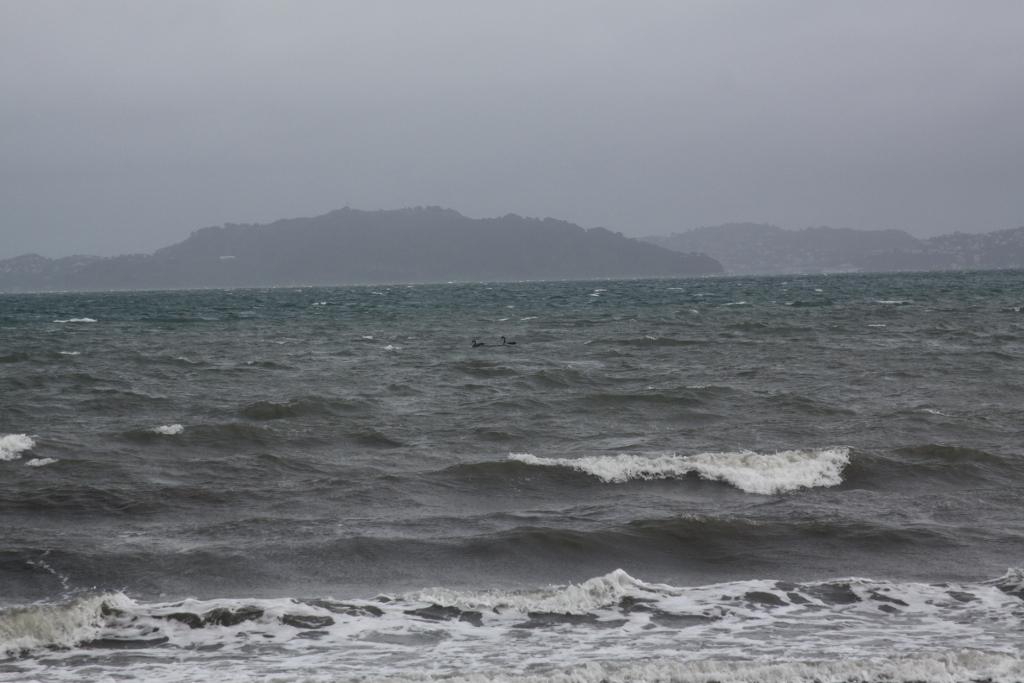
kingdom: Animalia
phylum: Chordata
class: Aves
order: Anseriformes
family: Anatidae
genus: Cygnus
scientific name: Cygnus atratus
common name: Black swan
